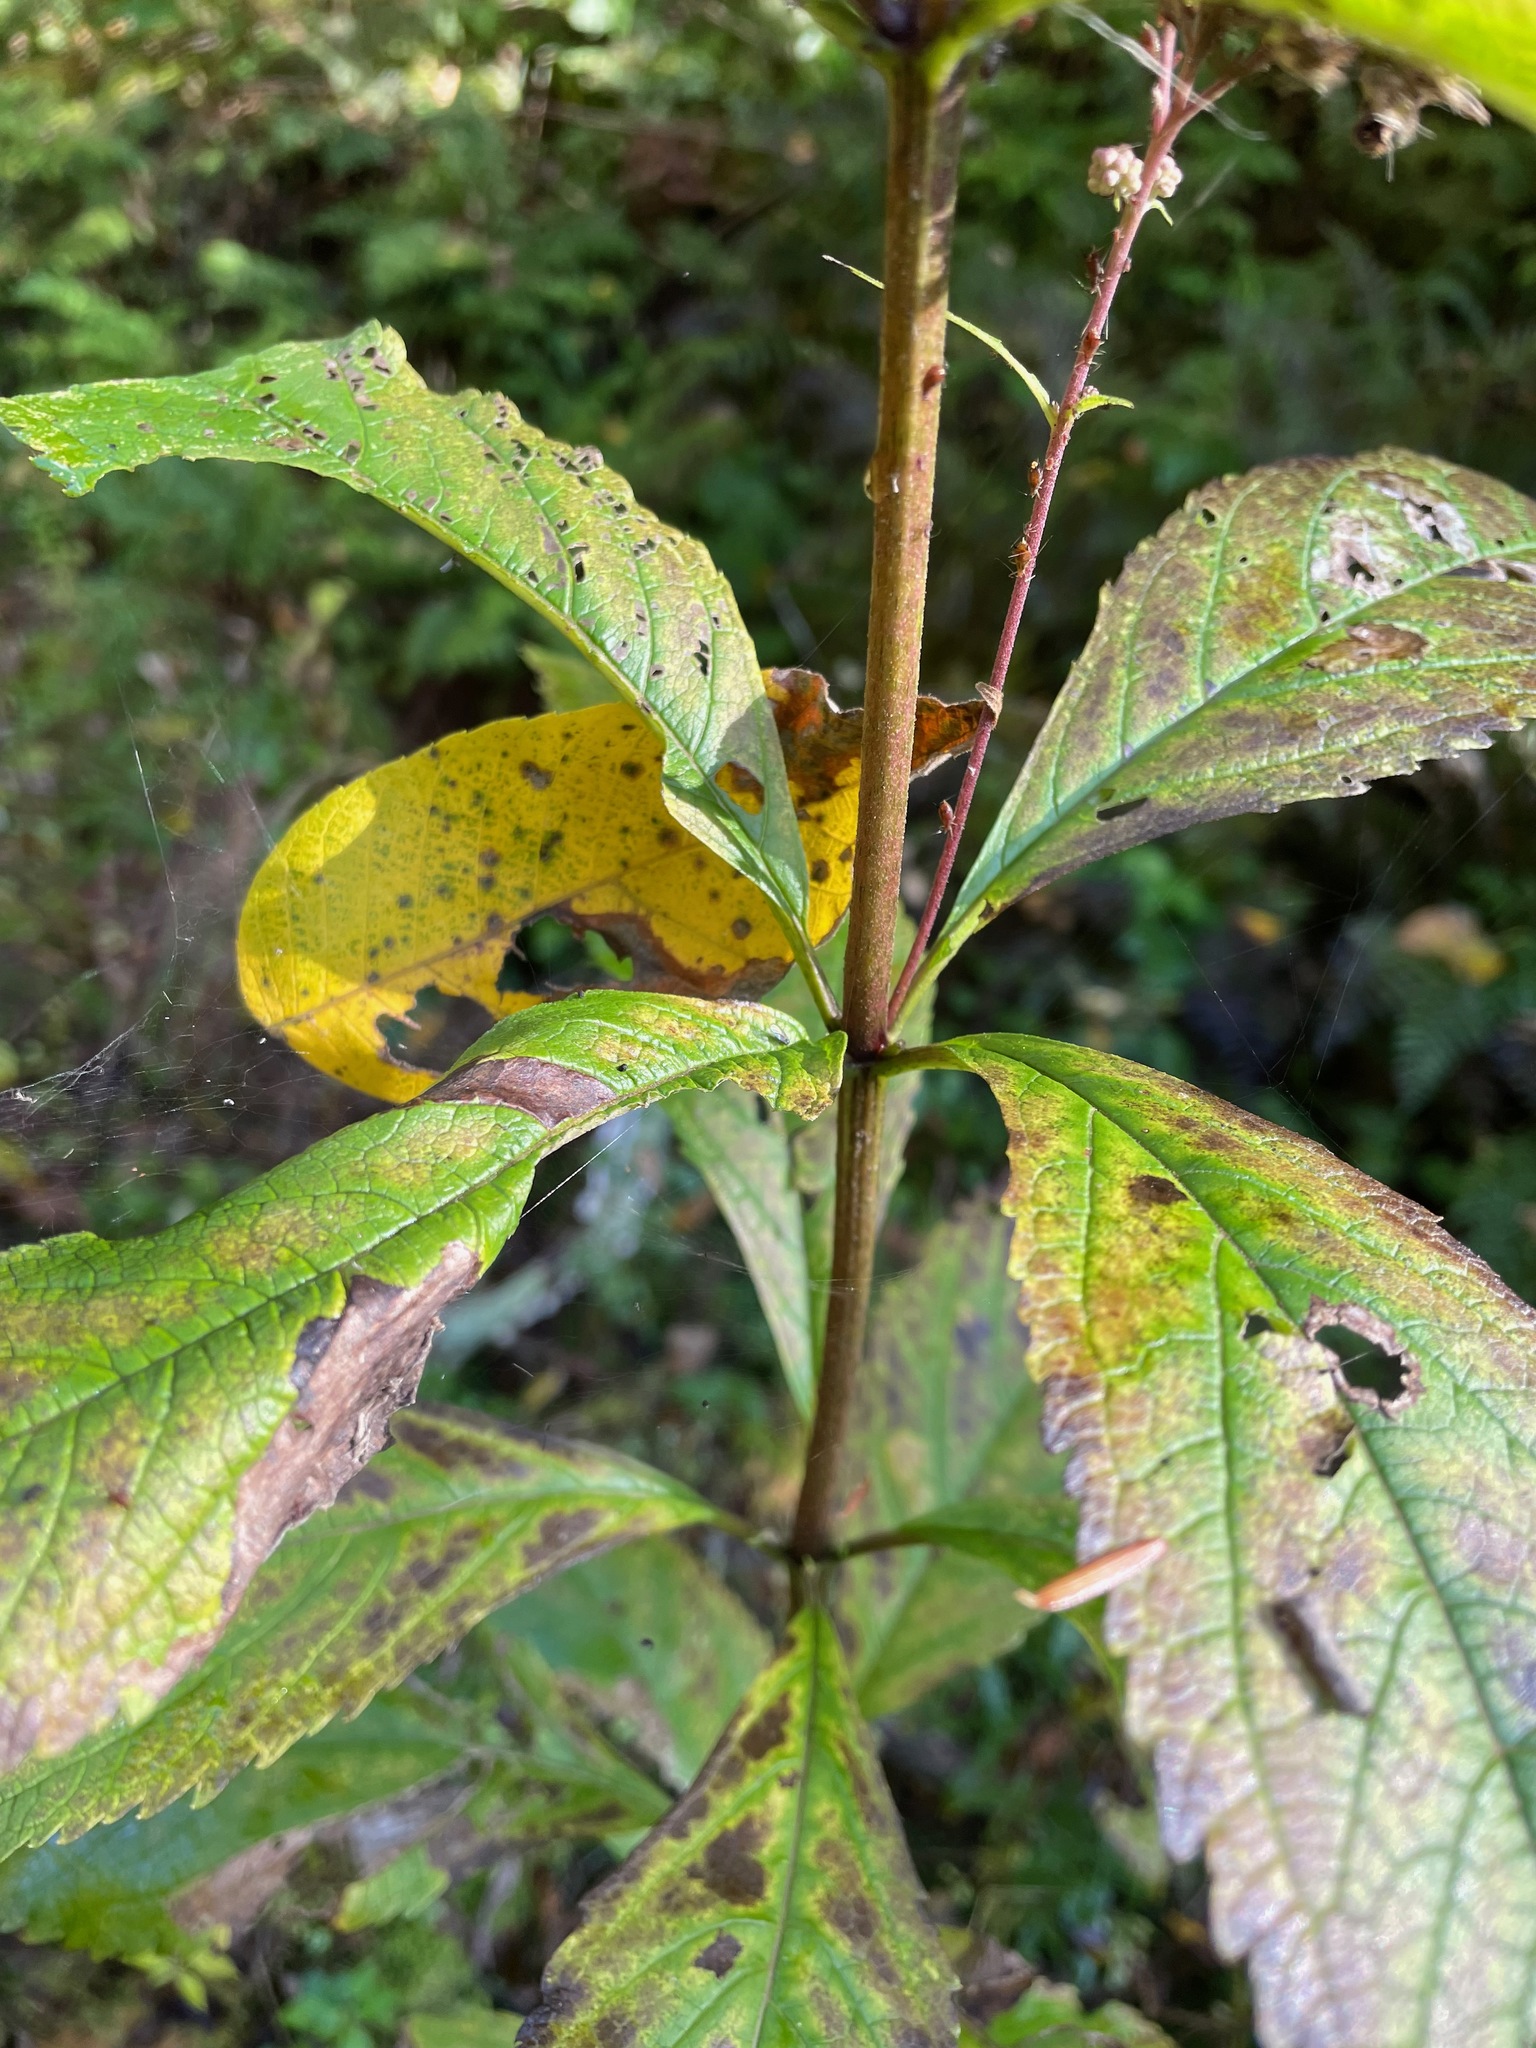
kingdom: Plantae
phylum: Tracheophyta
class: Magnoliopsida
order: Asterales
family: Asteraceae
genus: Eutrochium
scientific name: Eutrochium maculatum
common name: Spotted joe pye weed
